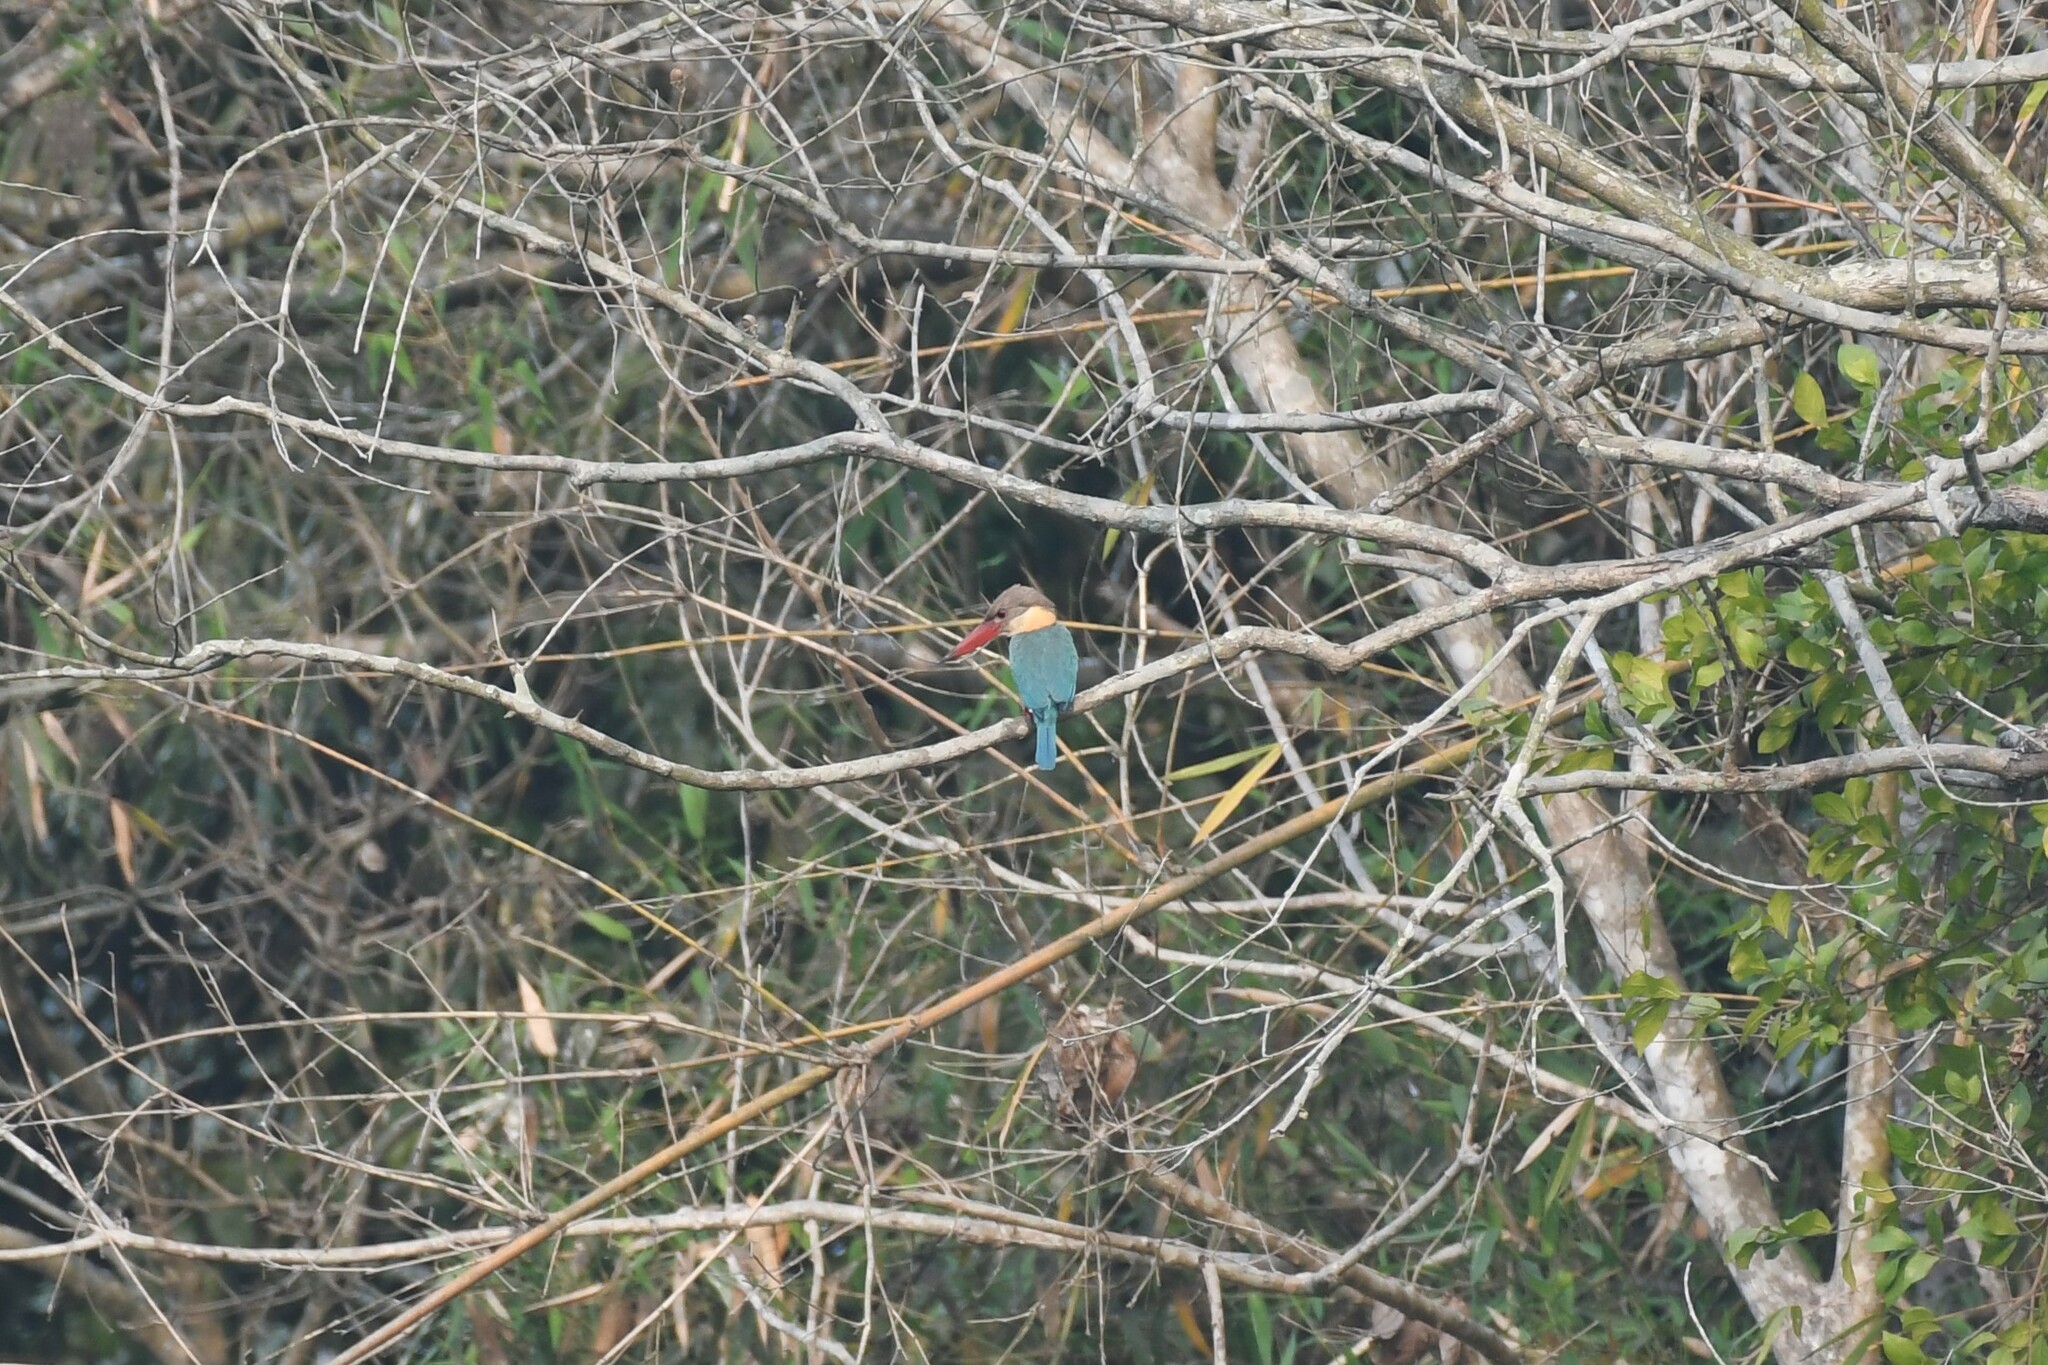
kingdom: Animalia
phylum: Chordata
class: Aves
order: Coraciiformes
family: Alcedinidae
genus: Pelargopsis
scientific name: Pelargopsis capensis
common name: Stork-billed kingfisher
